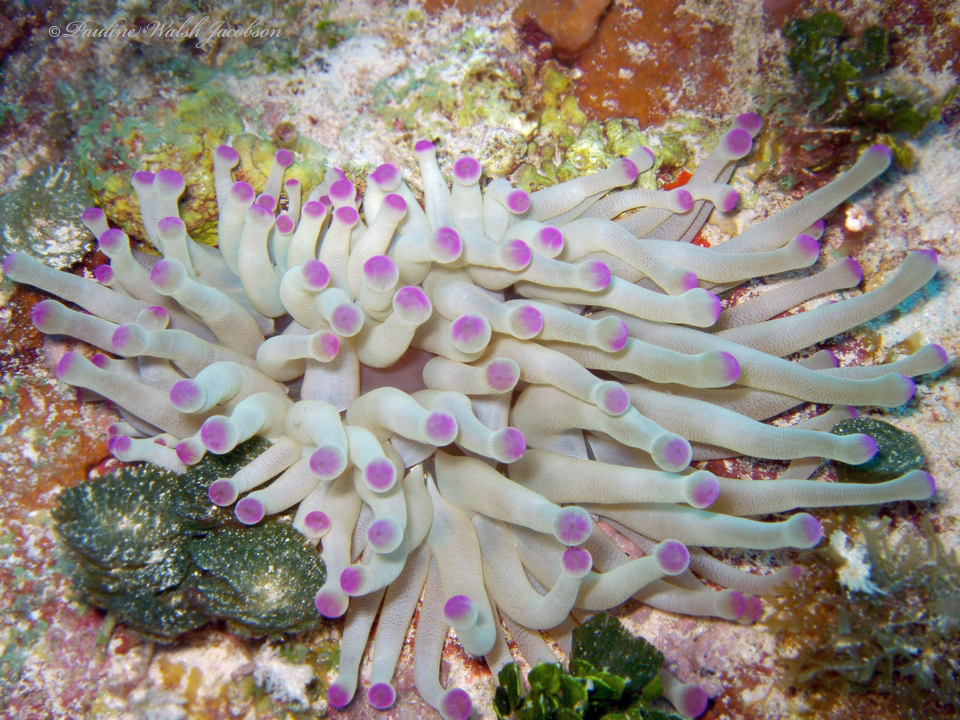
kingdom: Animalia
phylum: Cnidaria
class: Anthozoa
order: Actiniaria
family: Actiniidae
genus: Condylactis
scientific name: Condylactis gigantea
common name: Giant caribbean anemone
